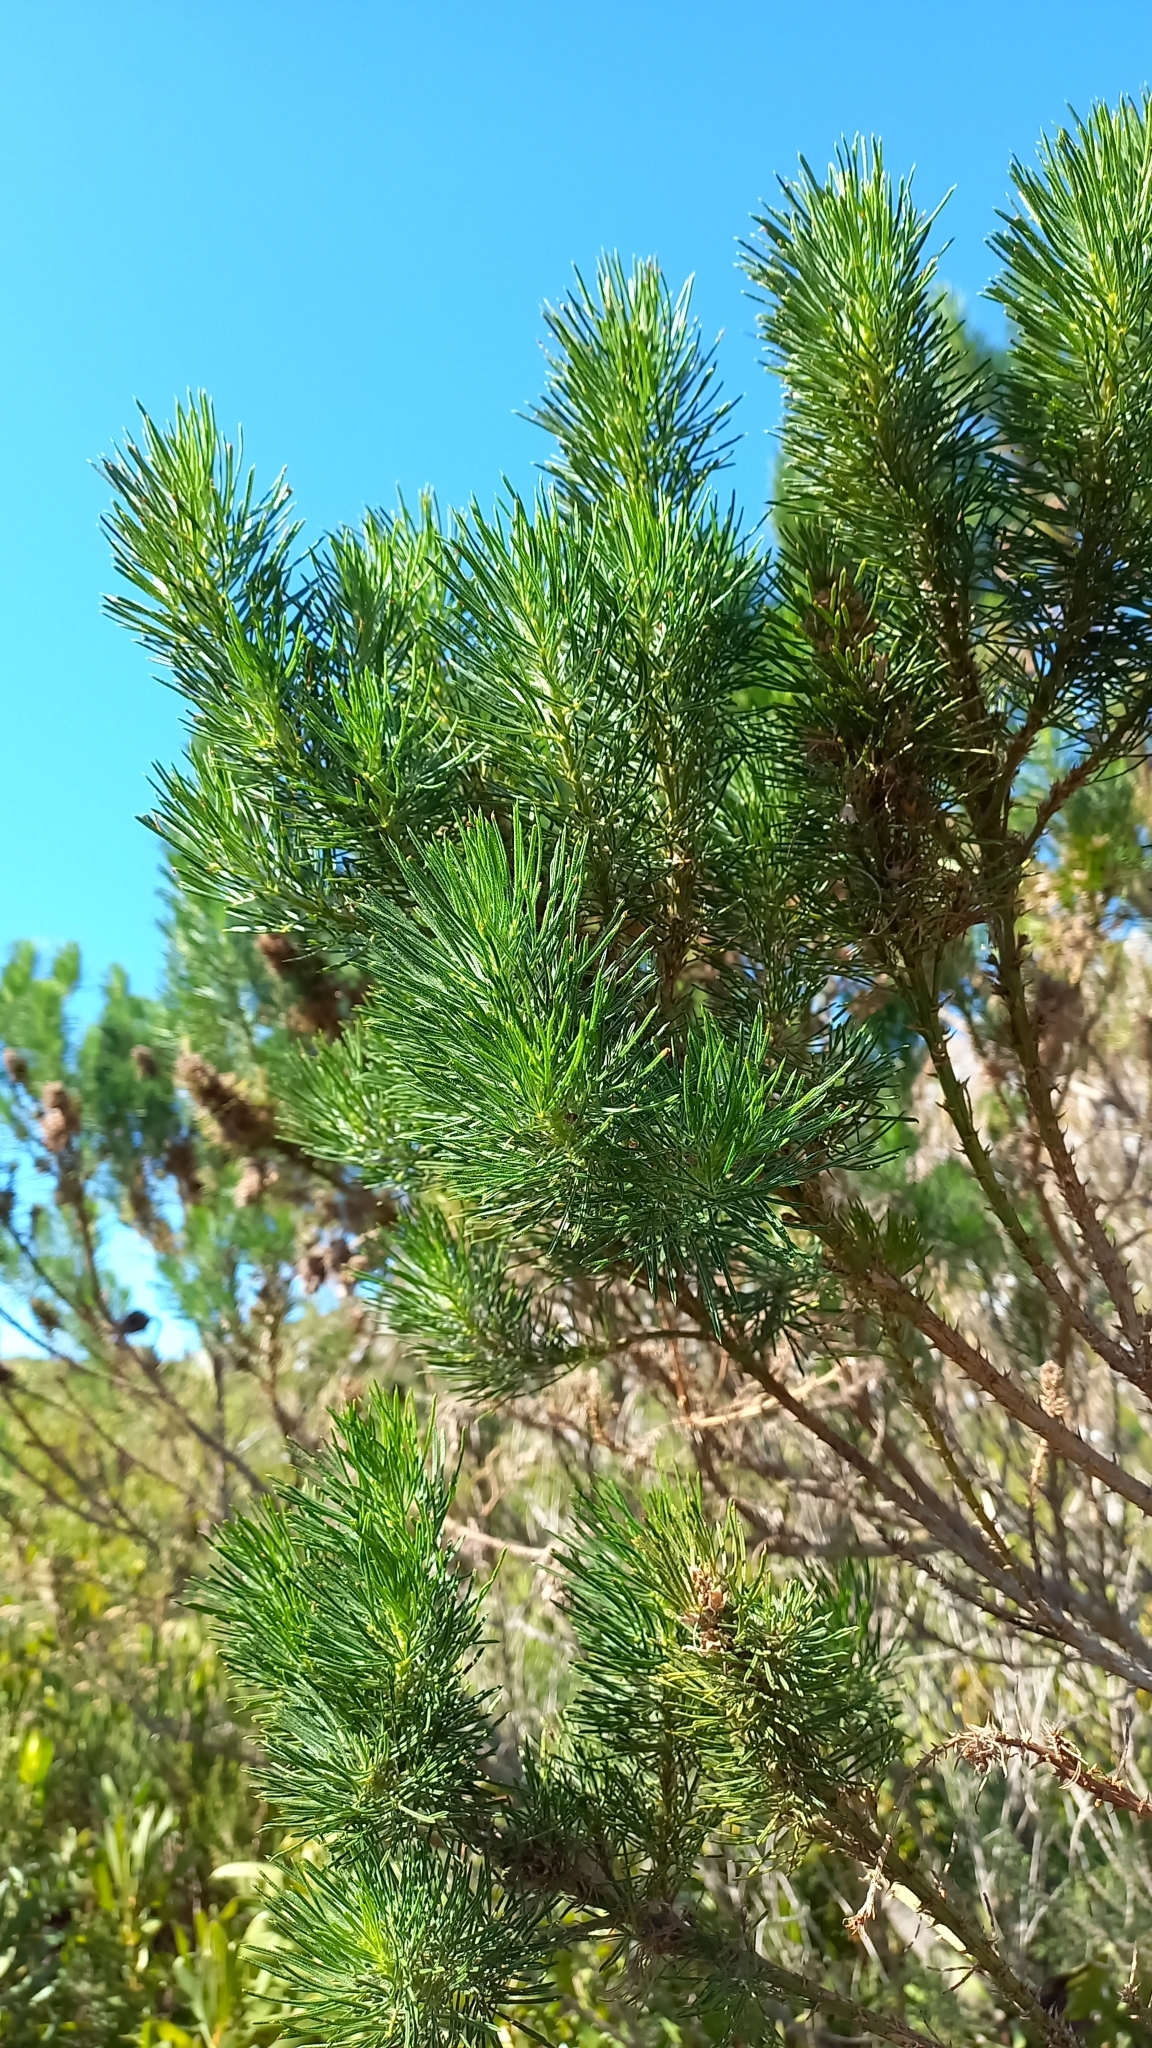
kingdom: Plantae
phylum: Tracheophyta
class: Magnoliopsida
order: Fabales
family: Fabaceae
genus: Psoralea
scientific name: Psoralea pinnata
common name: African scurfpea
